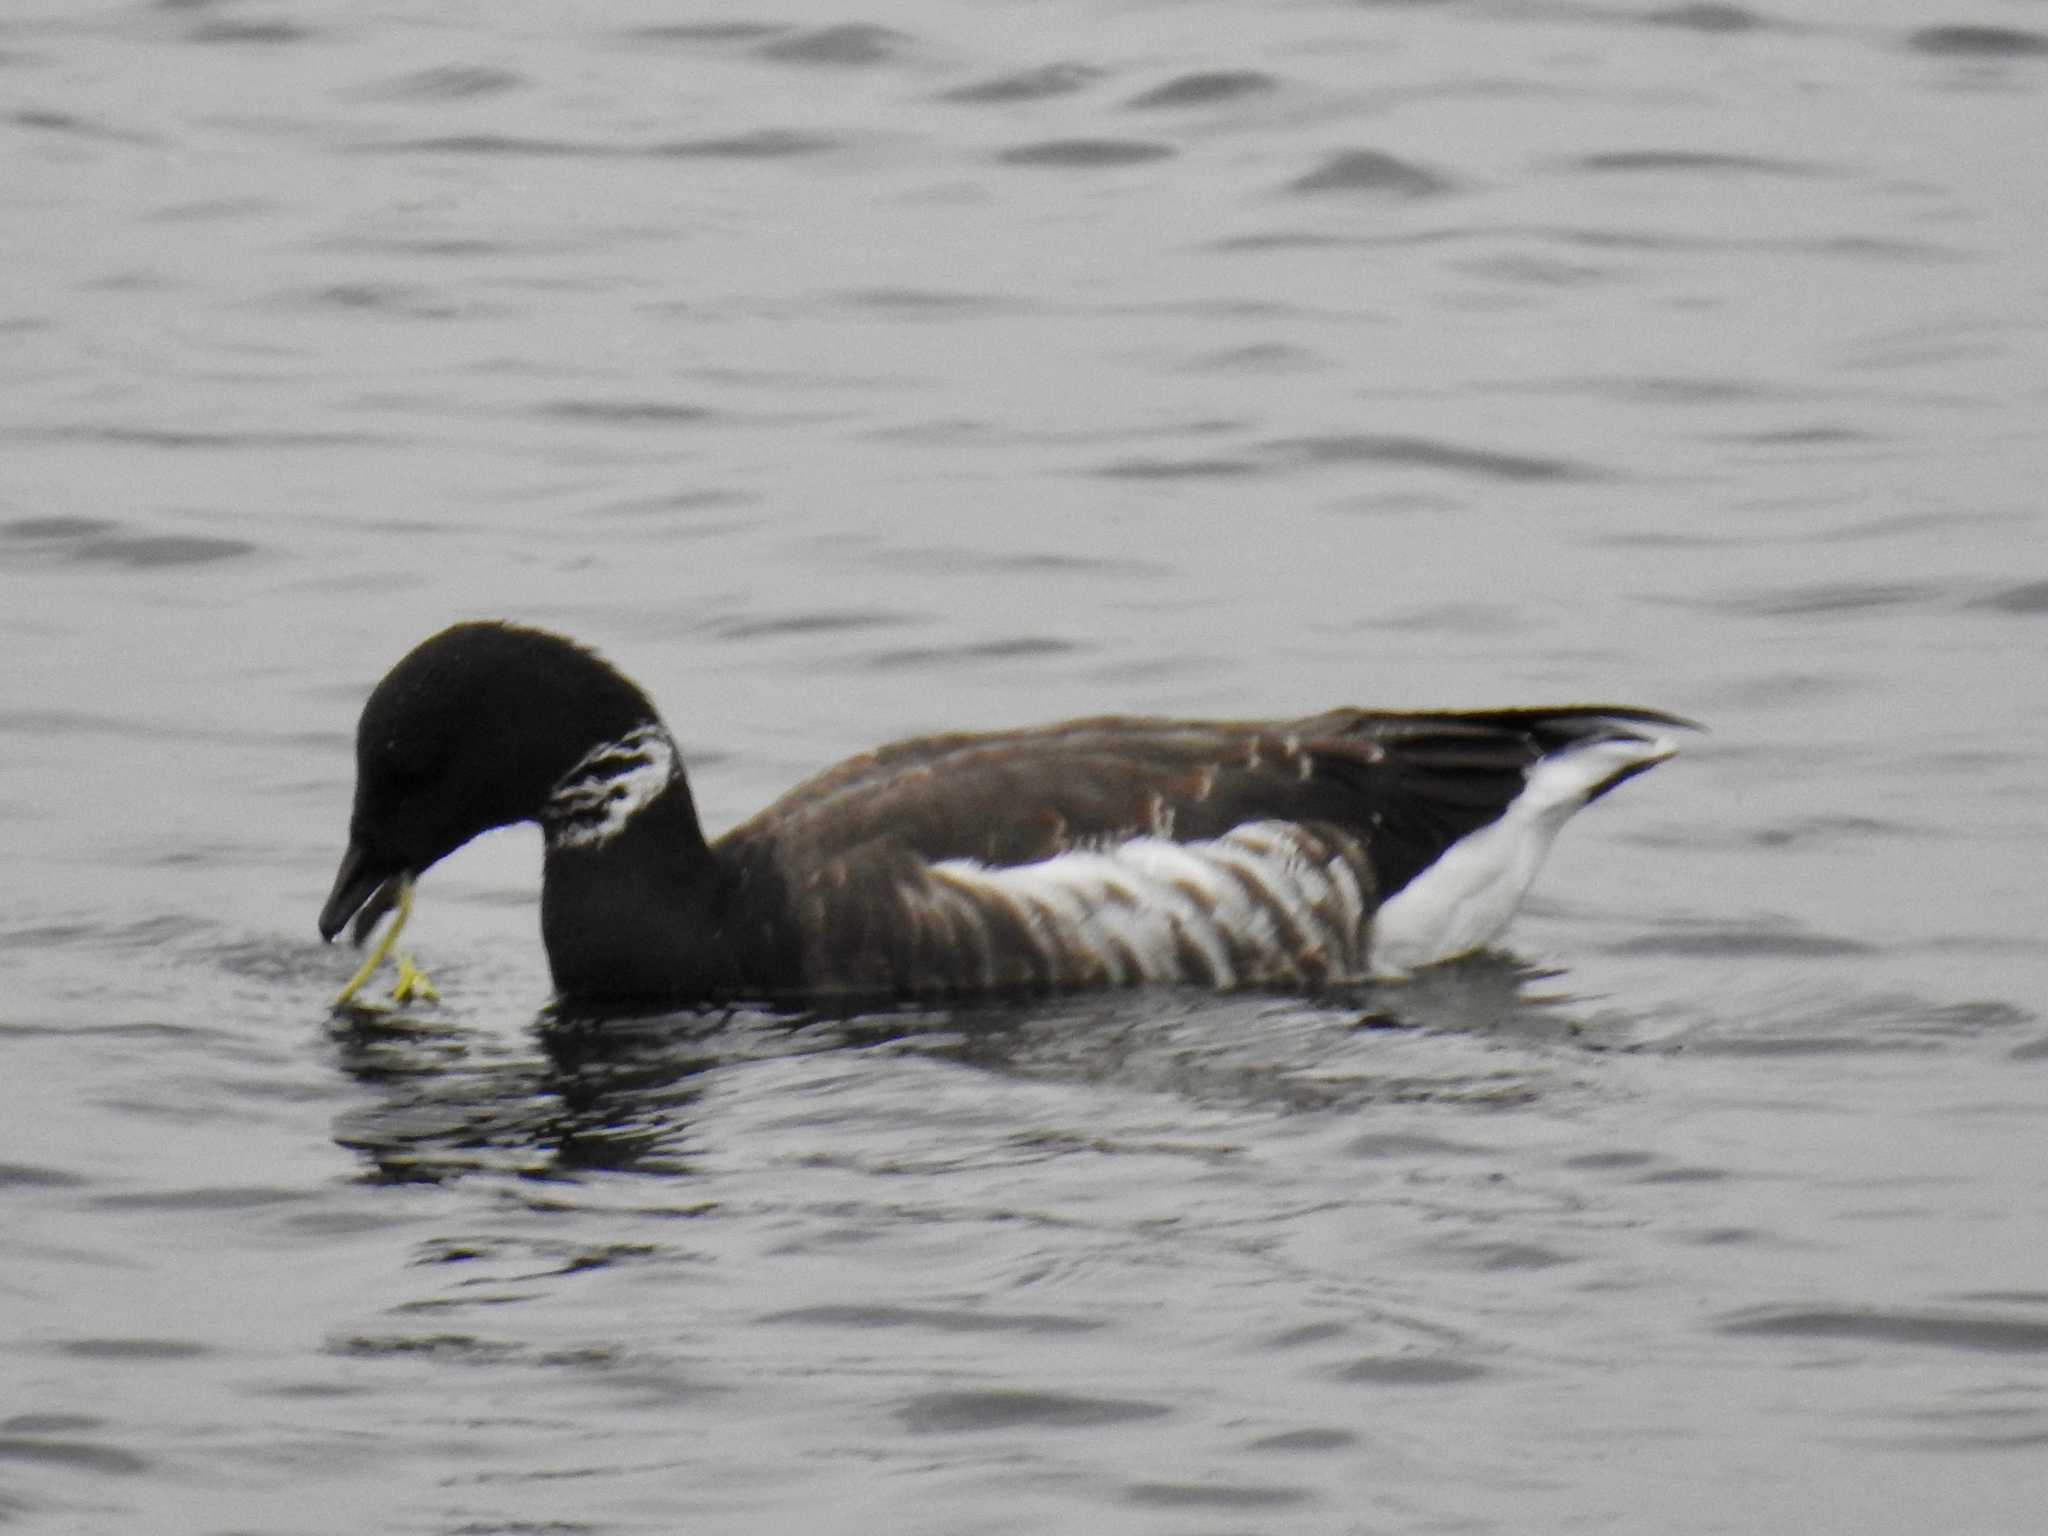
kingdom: Animalia
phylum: Chordata
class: Aves
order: Anseriformes
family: Anatidae
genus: Branta
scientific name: Branta bernicla
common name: Brant goose
